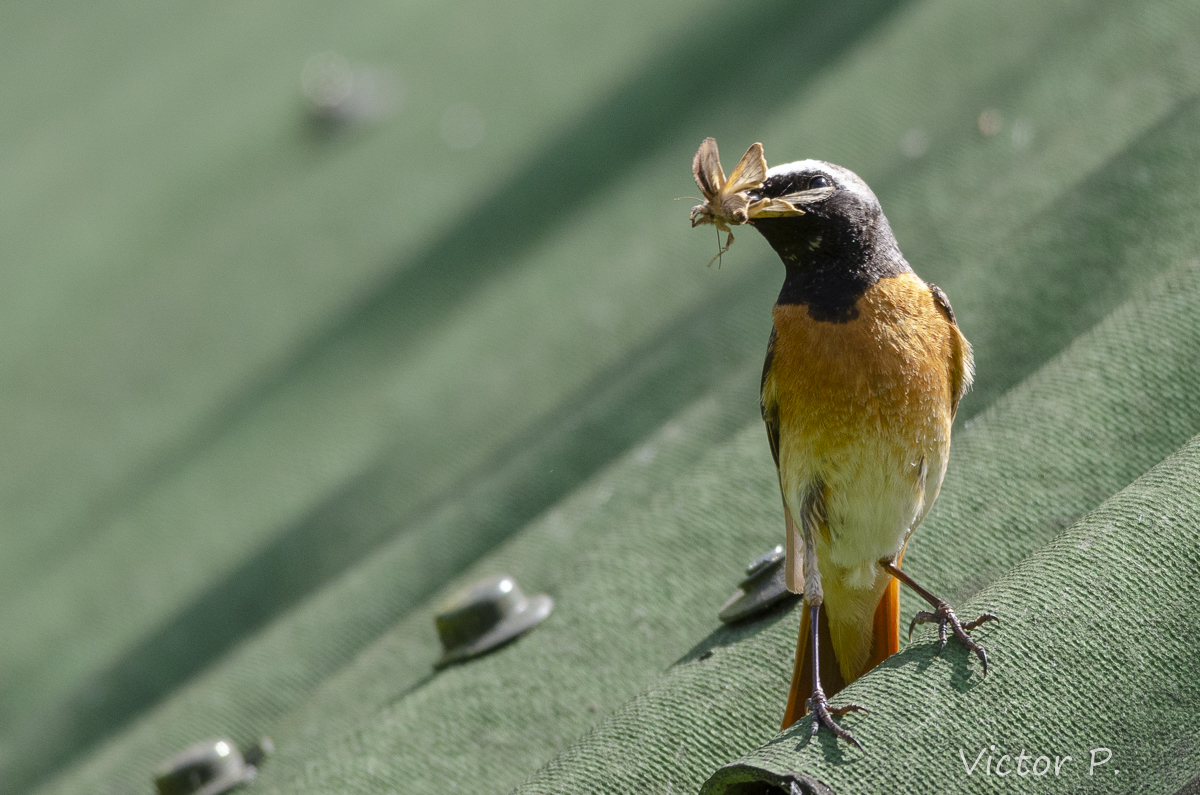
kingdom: Animalia
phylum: Chordata
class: Aves
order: Passeriformes
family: Muscicapidae
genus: Phoenicurus
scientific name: Phoenicurus phoenicurus
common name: Common redstart
